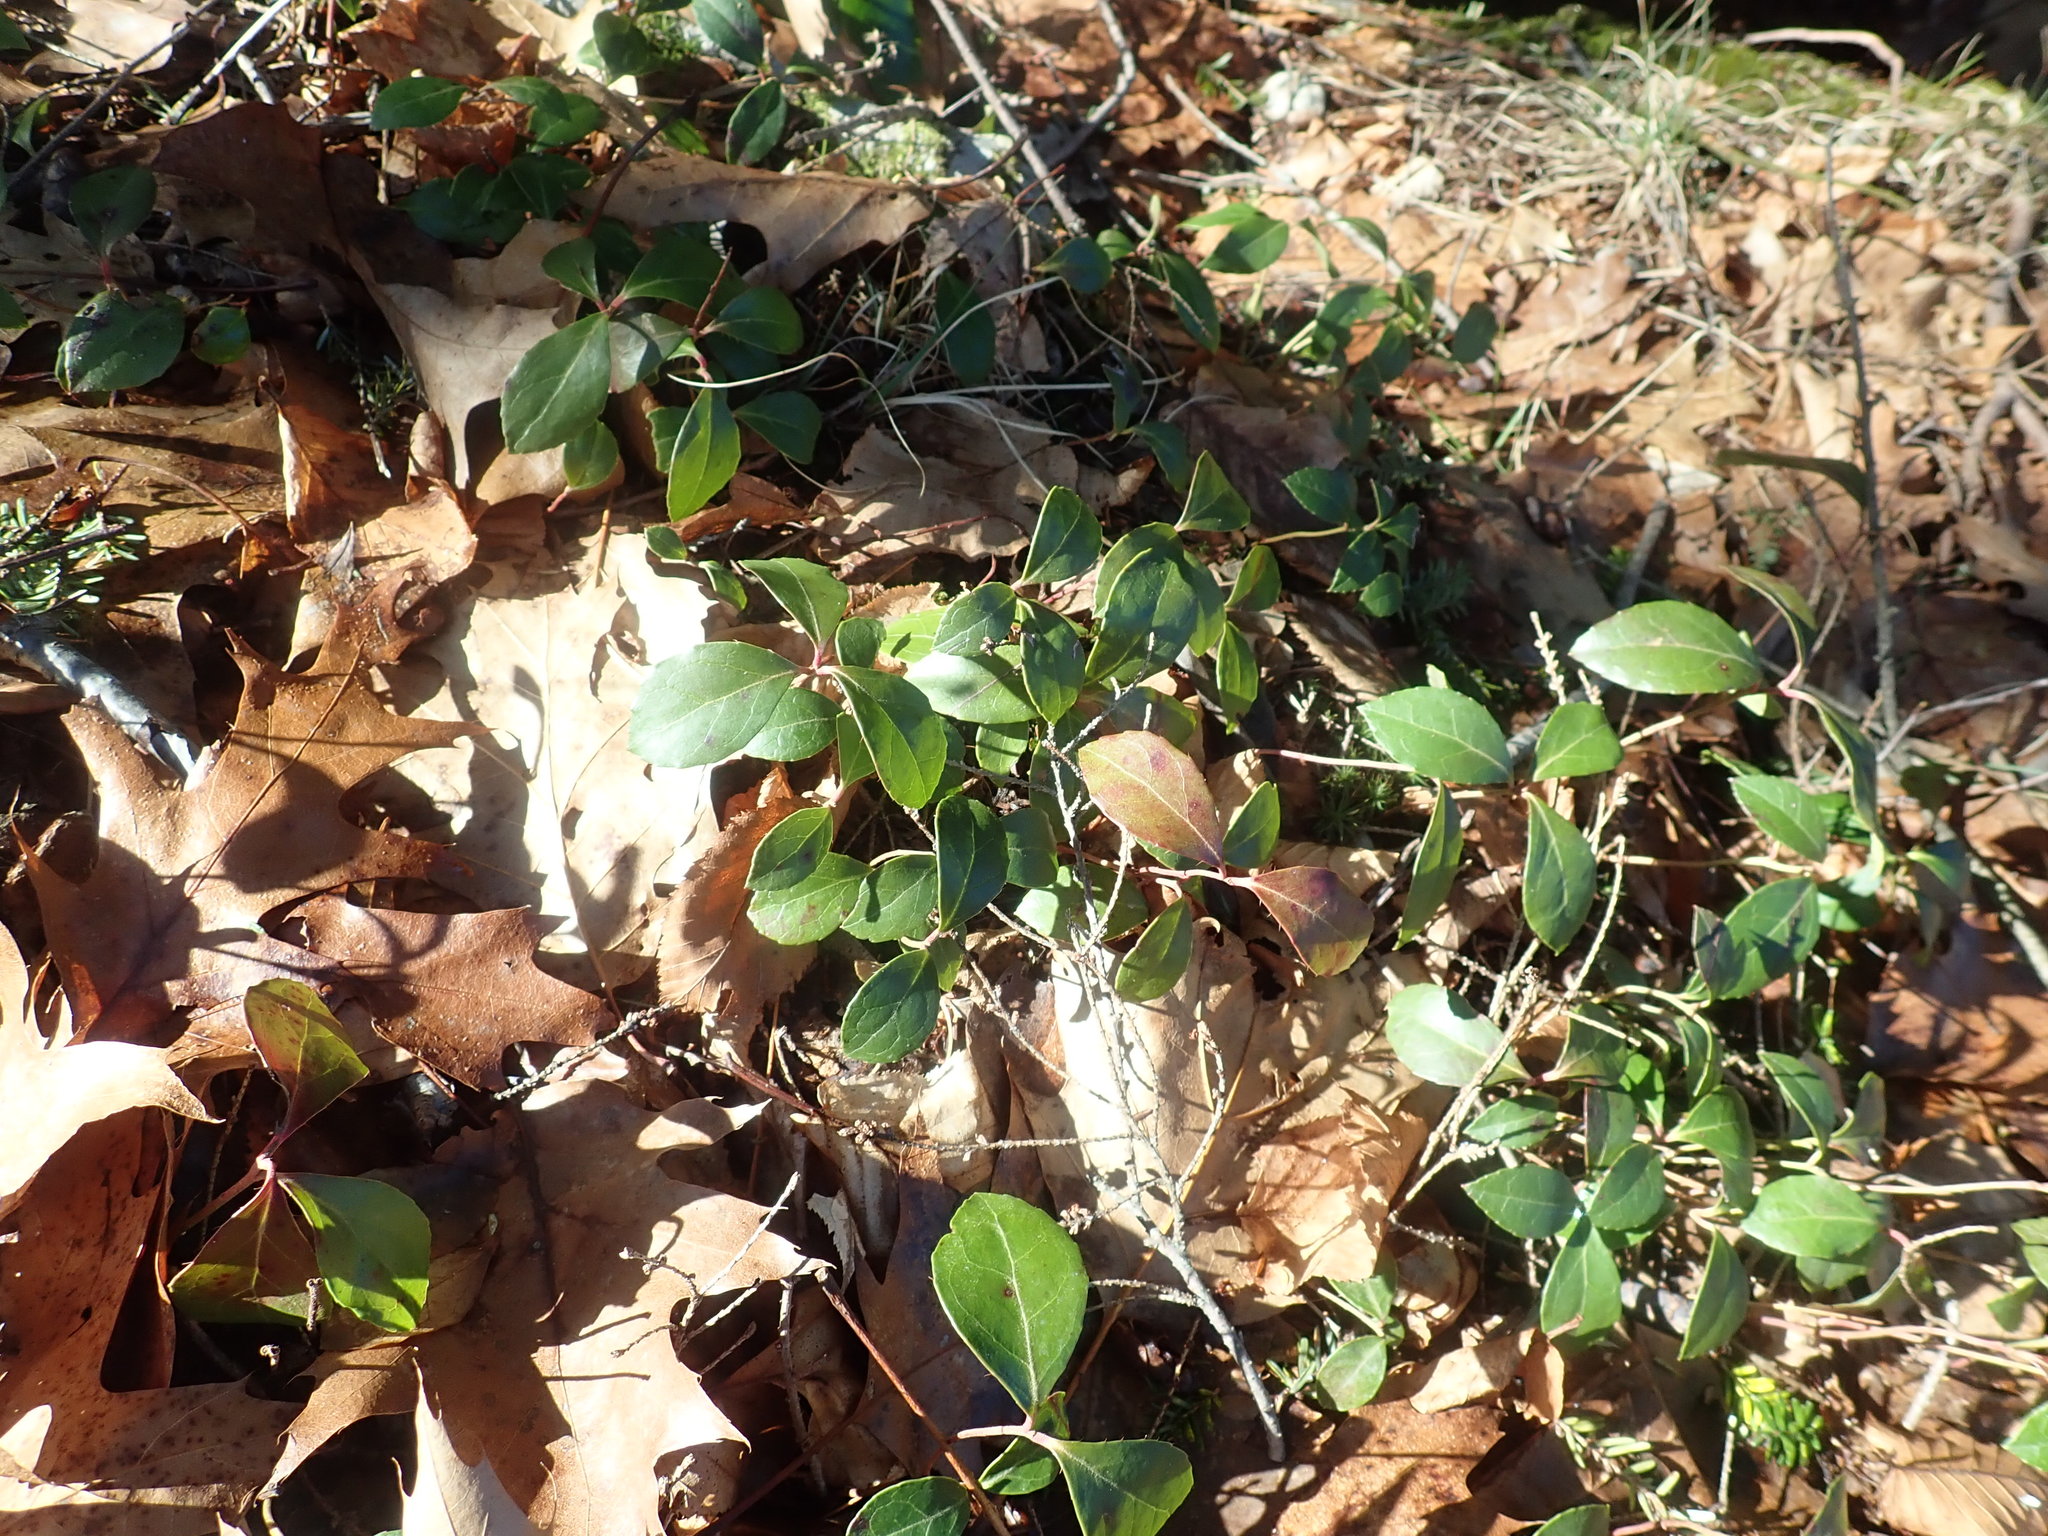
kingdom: Plantae
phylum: Tracheophyta
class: Magnoliopsida
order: Ericales
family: Ericaceae
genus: Gaultheria
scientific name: Gaultheria procumbens
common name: Checkerberry
